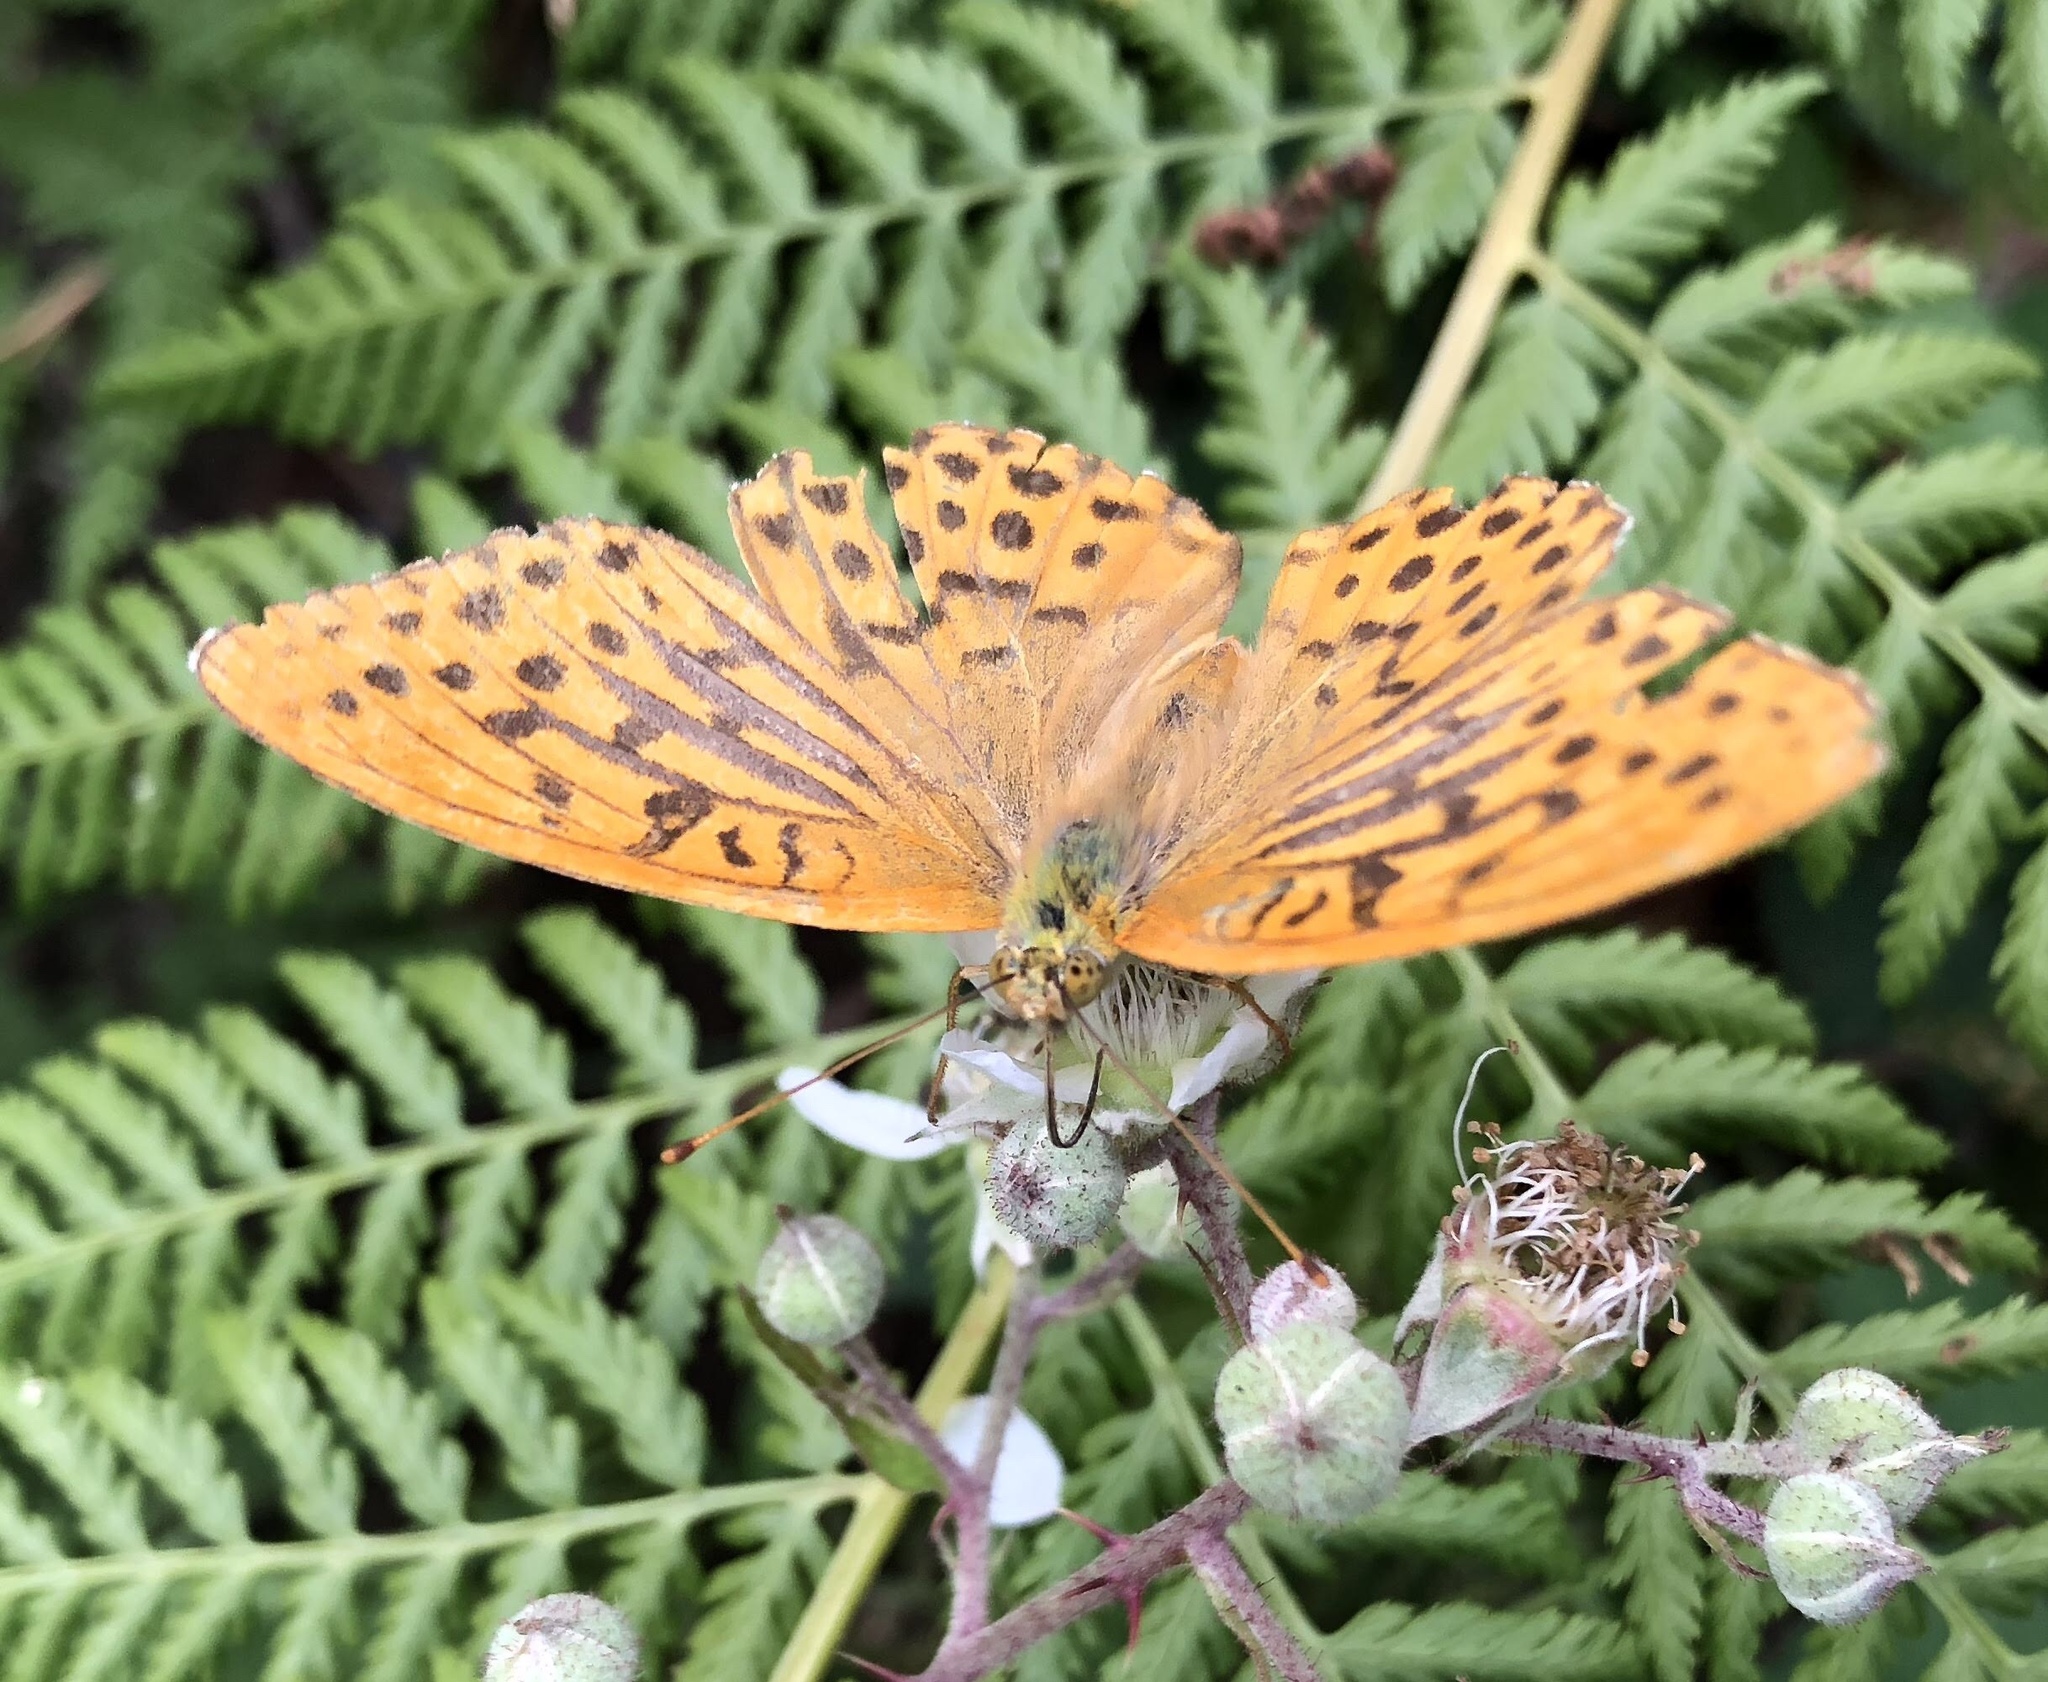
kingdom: Animalia
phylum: Arthropoda
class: Insecta
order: Lepidoptera
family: Nymphalidae
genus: Argynnis
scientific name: Argynnis paphia
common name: Silver-washed fritillary
